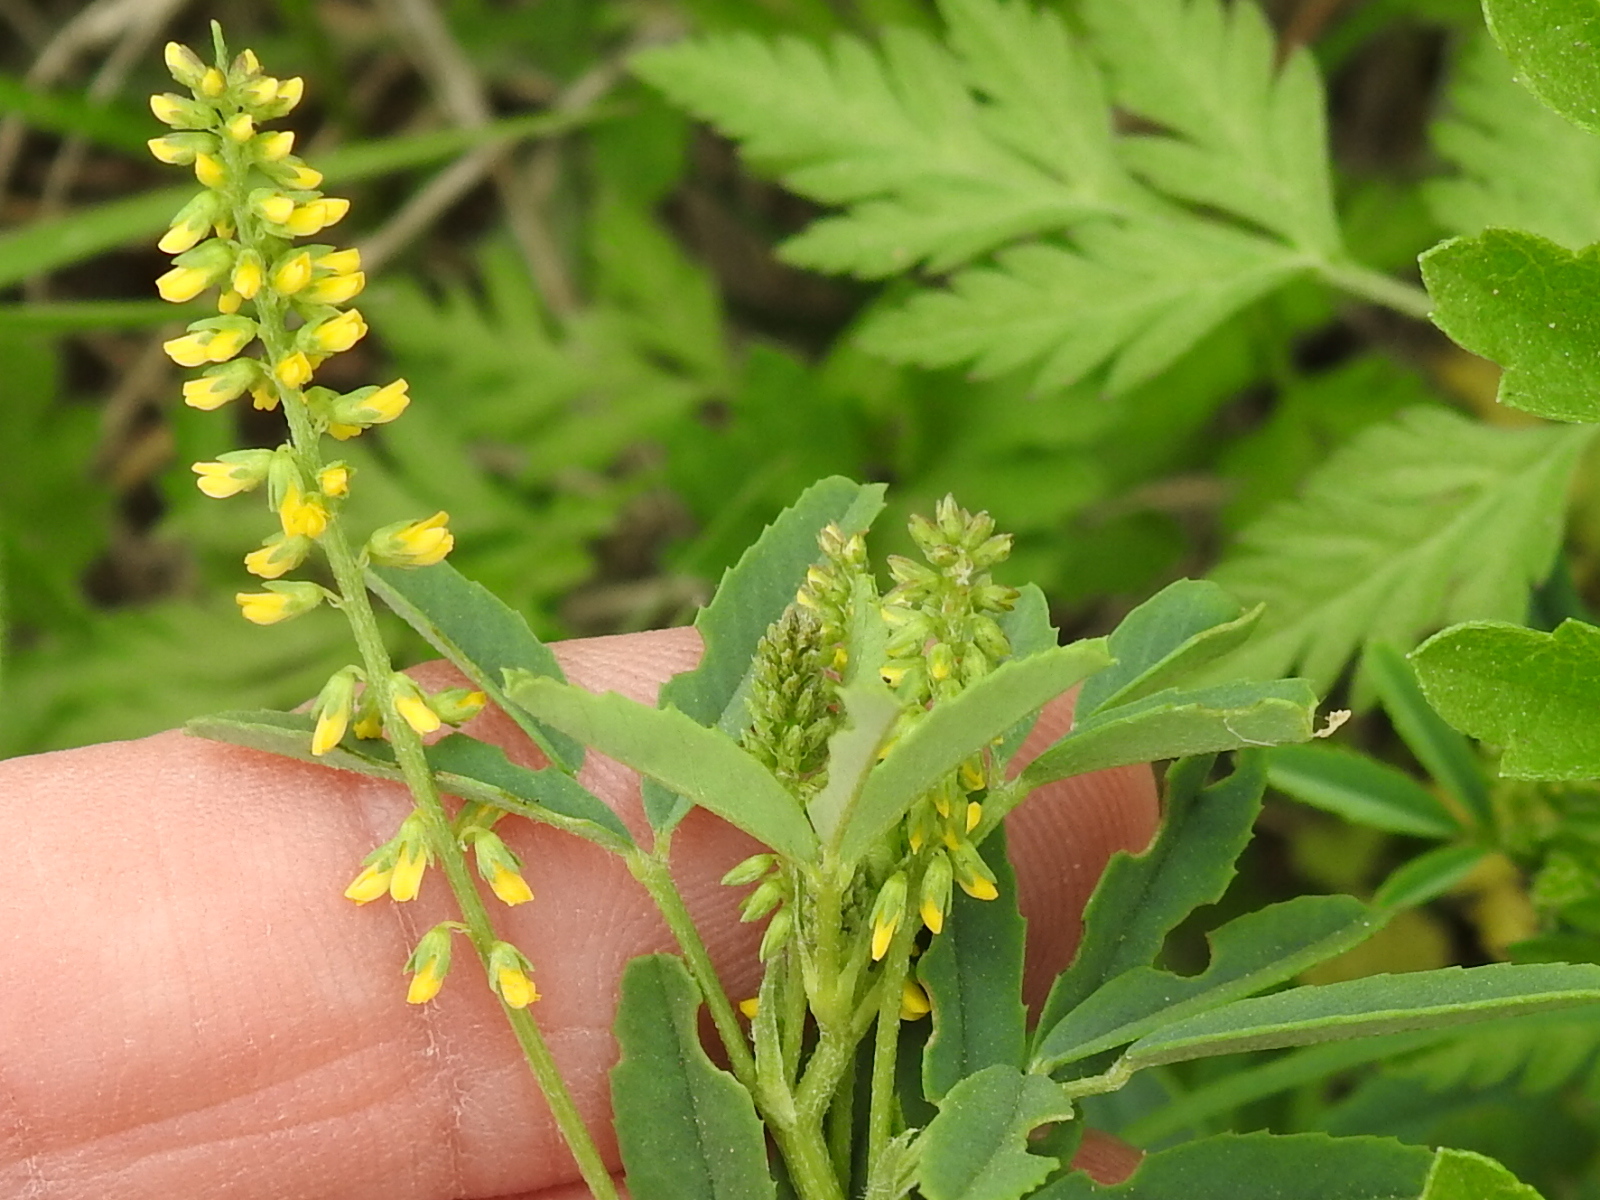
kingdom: Plantae
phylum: Tracheophyta
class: Magnoliopsida
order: Fabales
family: Fabaceae
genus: Melilotus
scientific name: Melilotus indicus
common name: Small melilot
